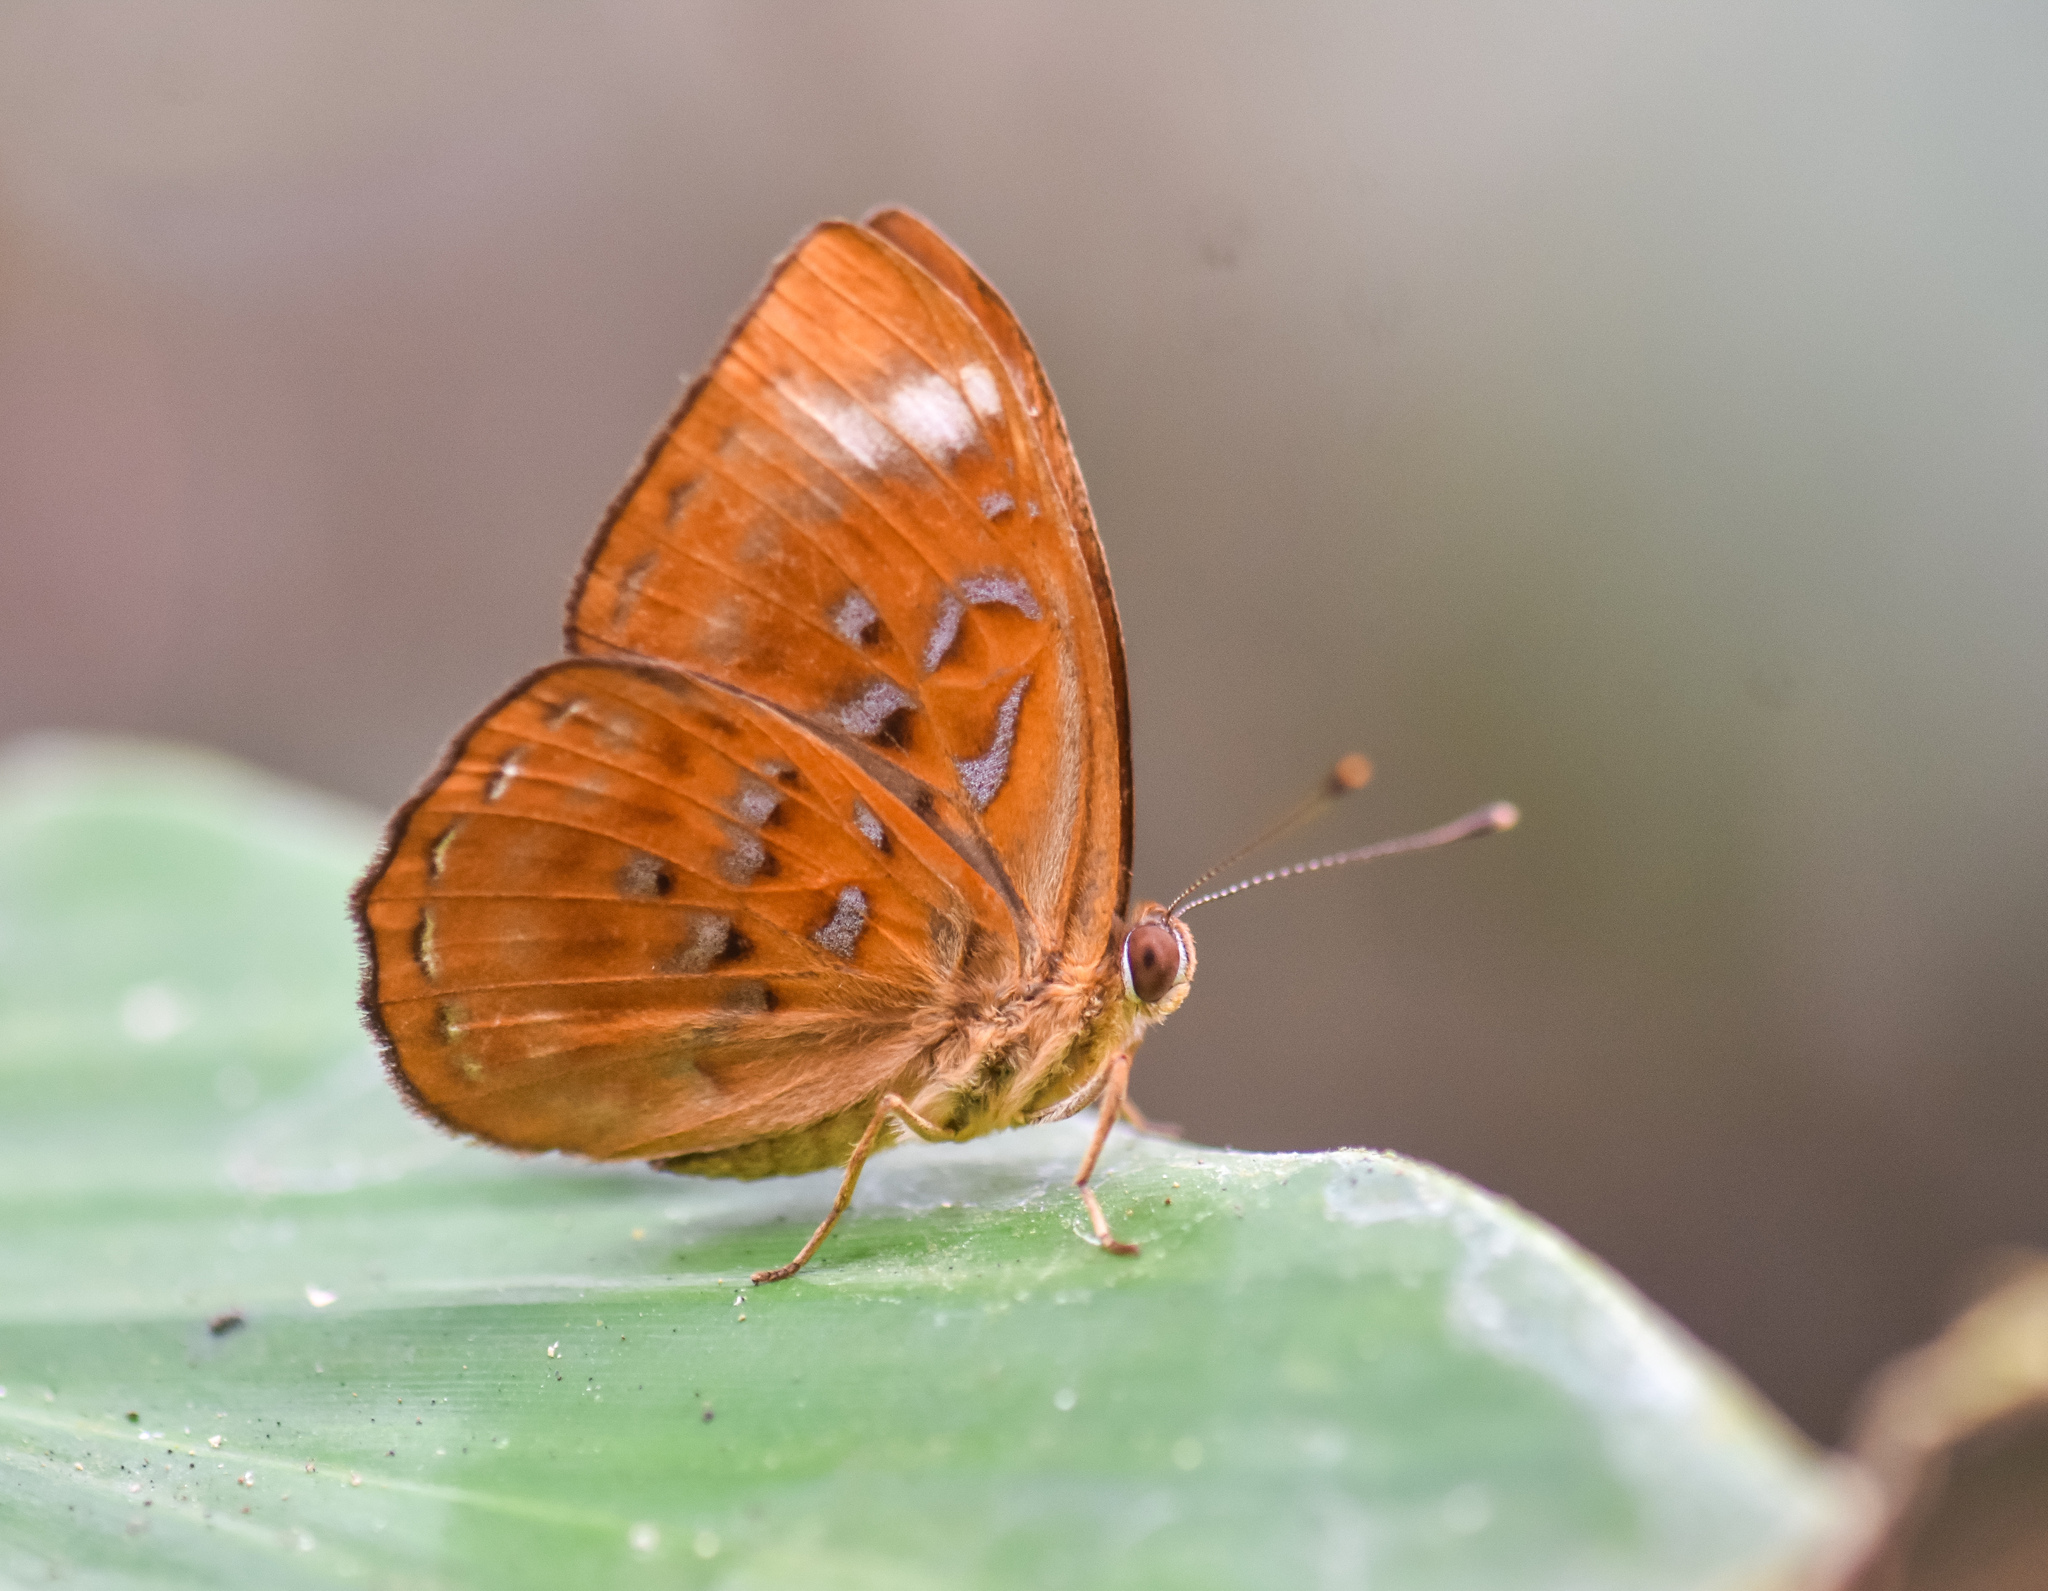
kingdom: Animalia
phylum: Arthropoda
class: Insecta
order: Lepidoptera
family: Erebidae
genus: Dysschema
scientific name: Dysschema
